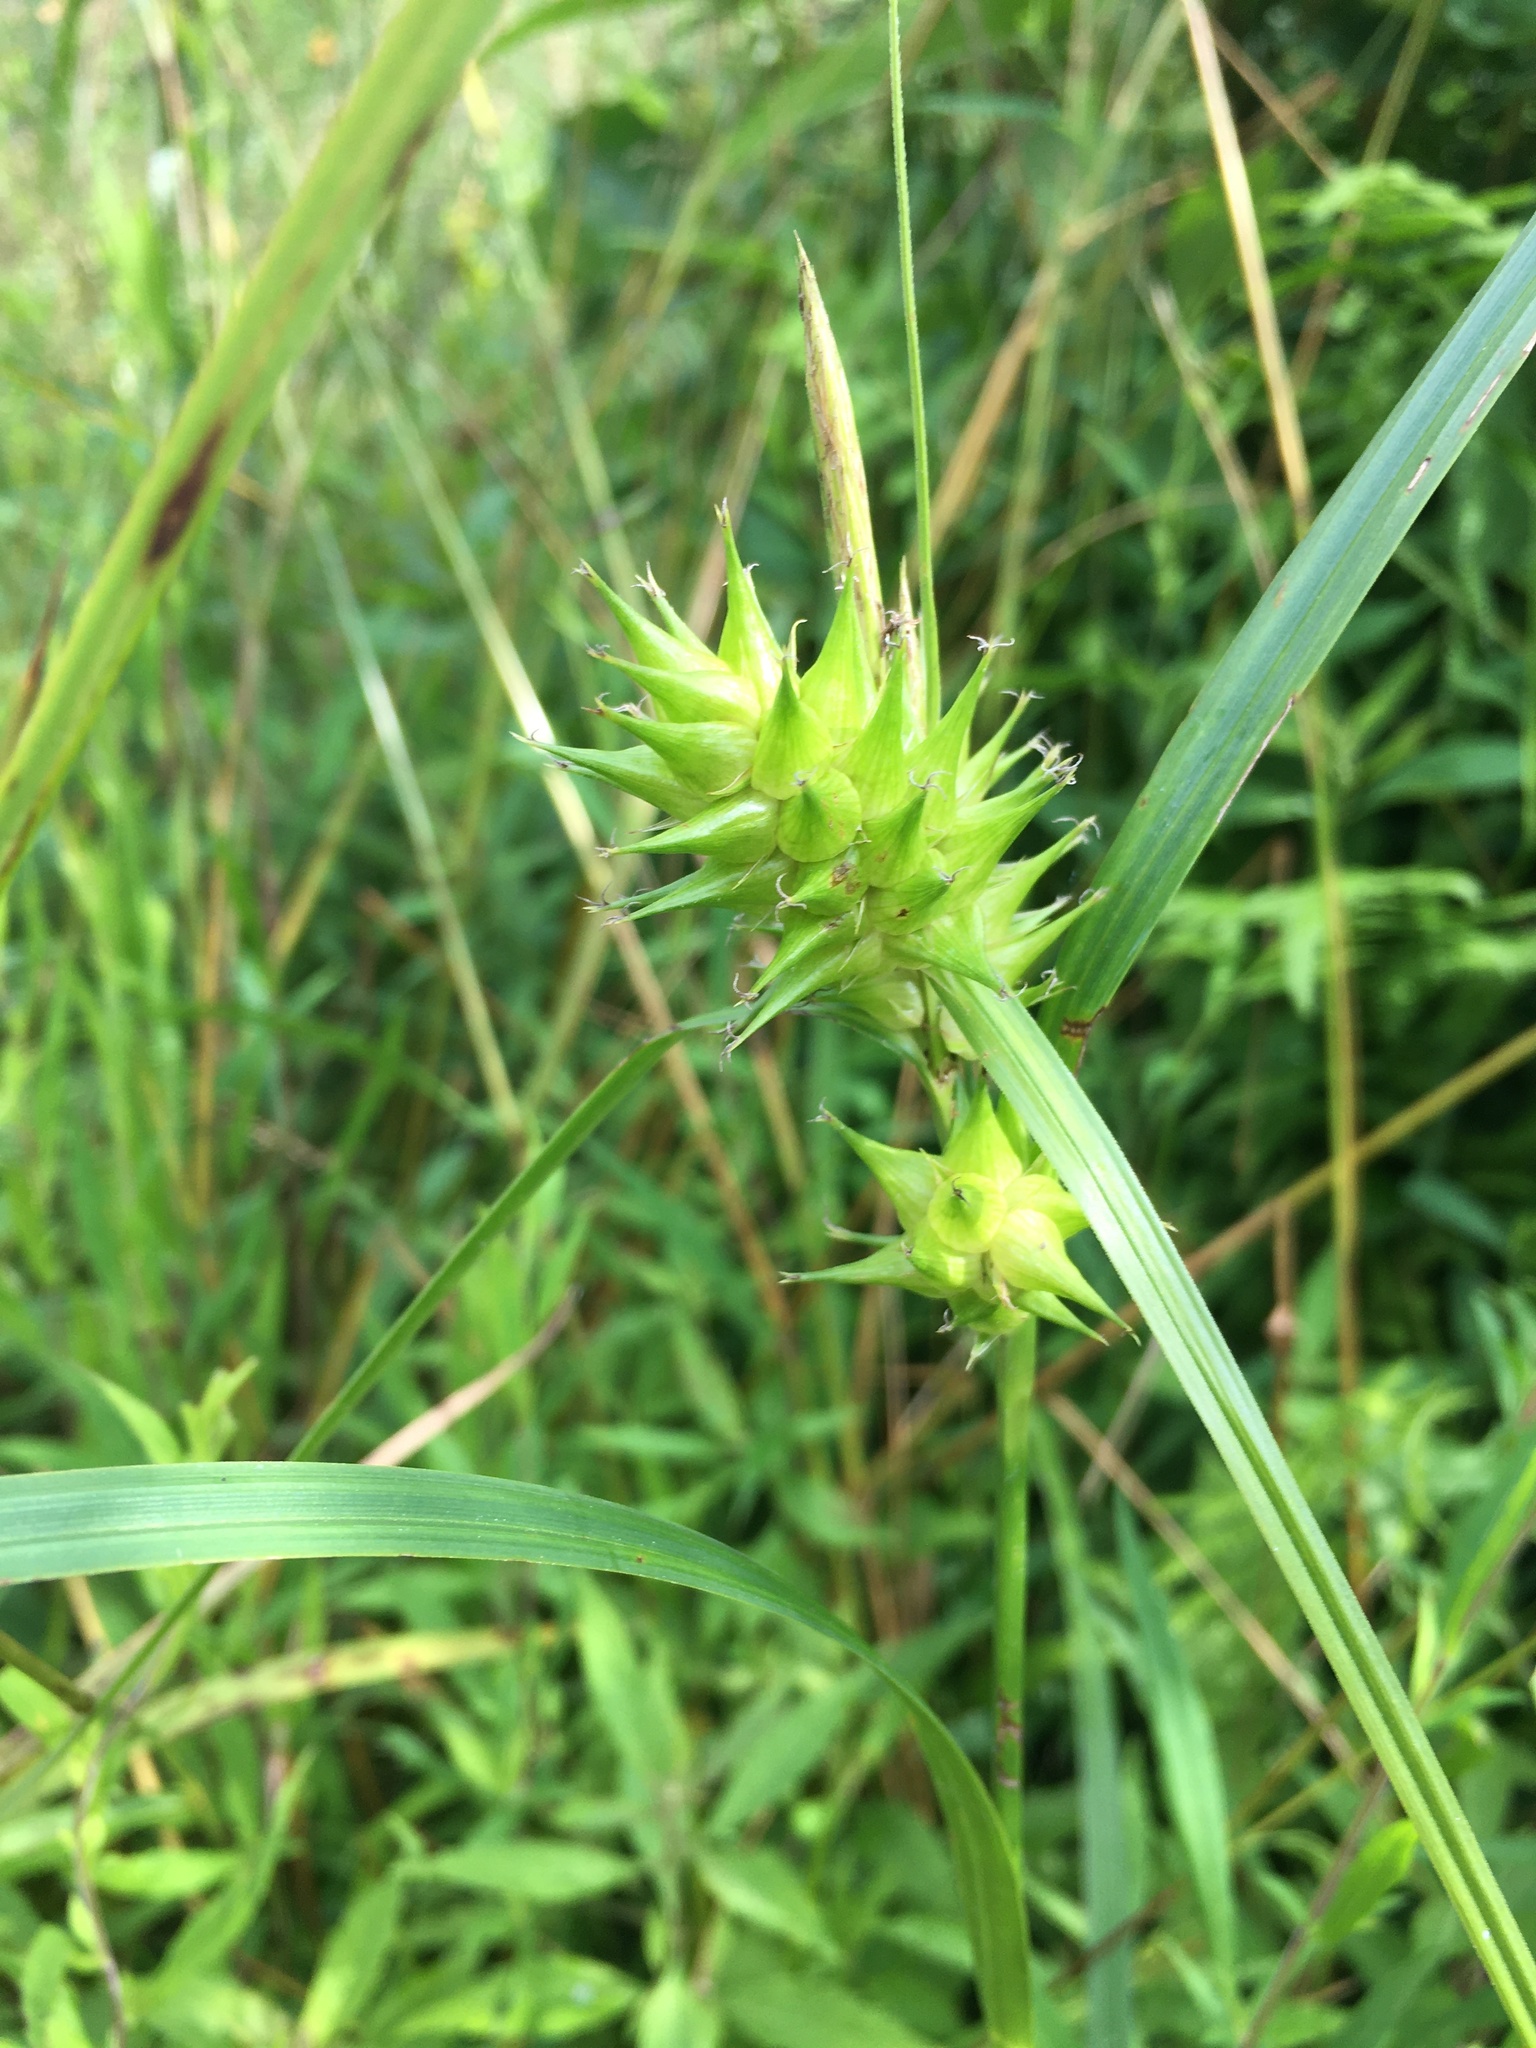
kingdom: Plantae
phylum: Tracheophyta
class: Liliopsida
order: Poales
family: Cyperaceae
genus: Carex
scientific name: Carex lupulina
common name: Hop sedge
